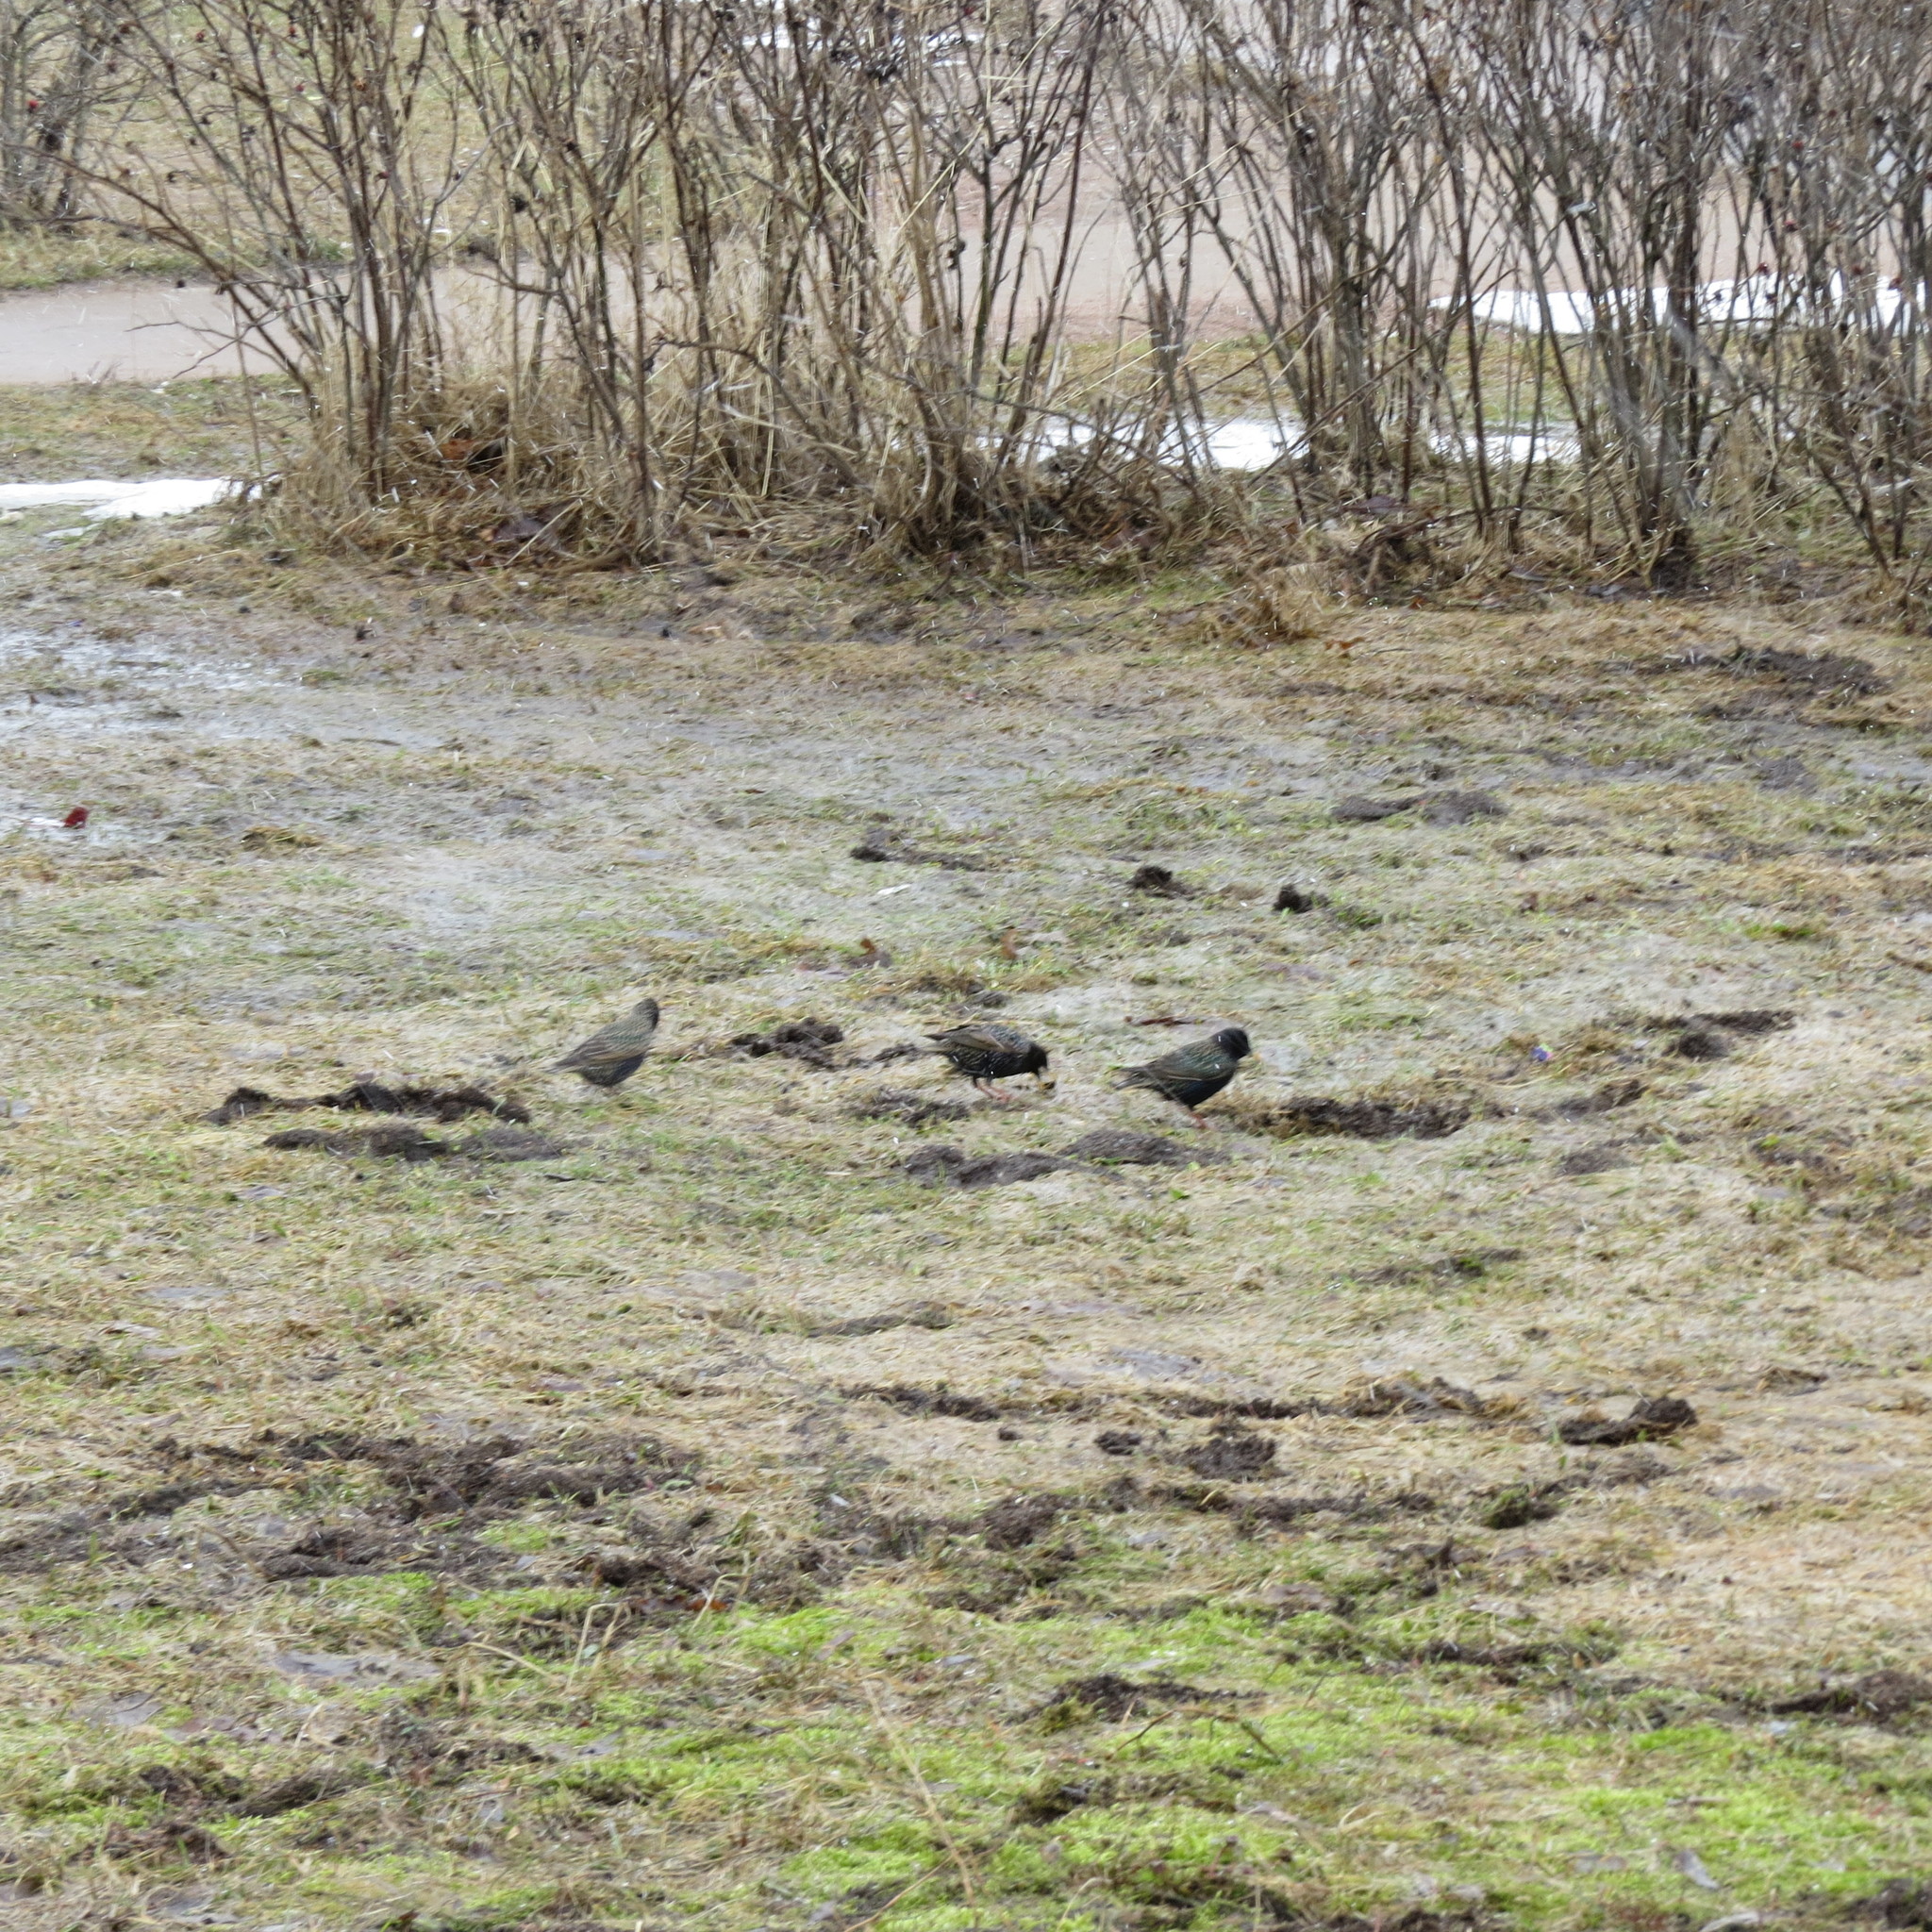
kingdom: Animalia
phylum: Chordata
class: Aves
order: Passeriformes
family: Sturnidae
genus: Sturnus
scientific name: Sturnus vulgaris
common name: Common starling
